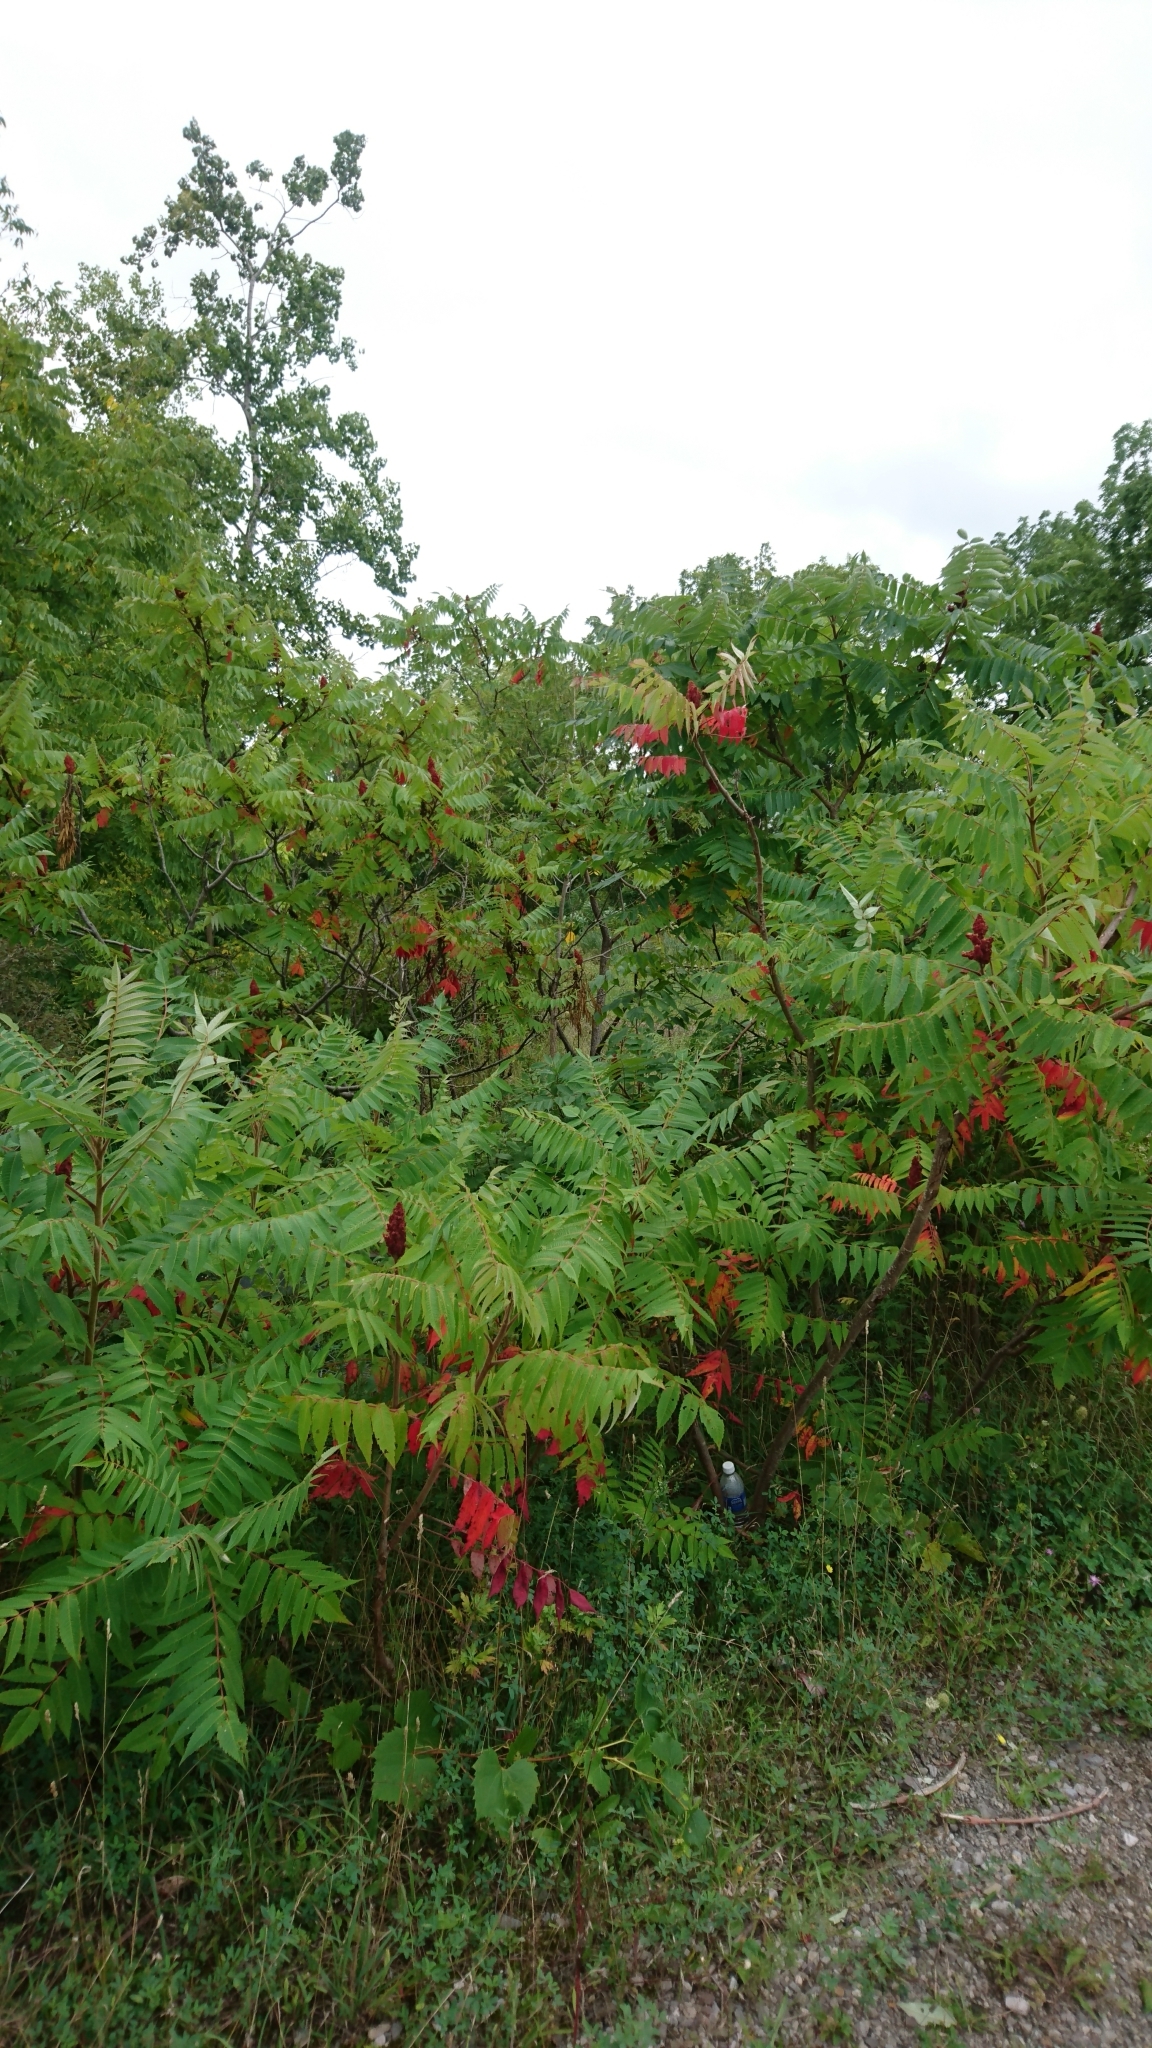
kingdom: Plantae
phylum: Tracheophyta
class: Magnoliopsida
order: Sapindales
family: Anacardiaceae
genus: Rhus
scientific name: Rhus typhina
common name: Staghorn sumac
